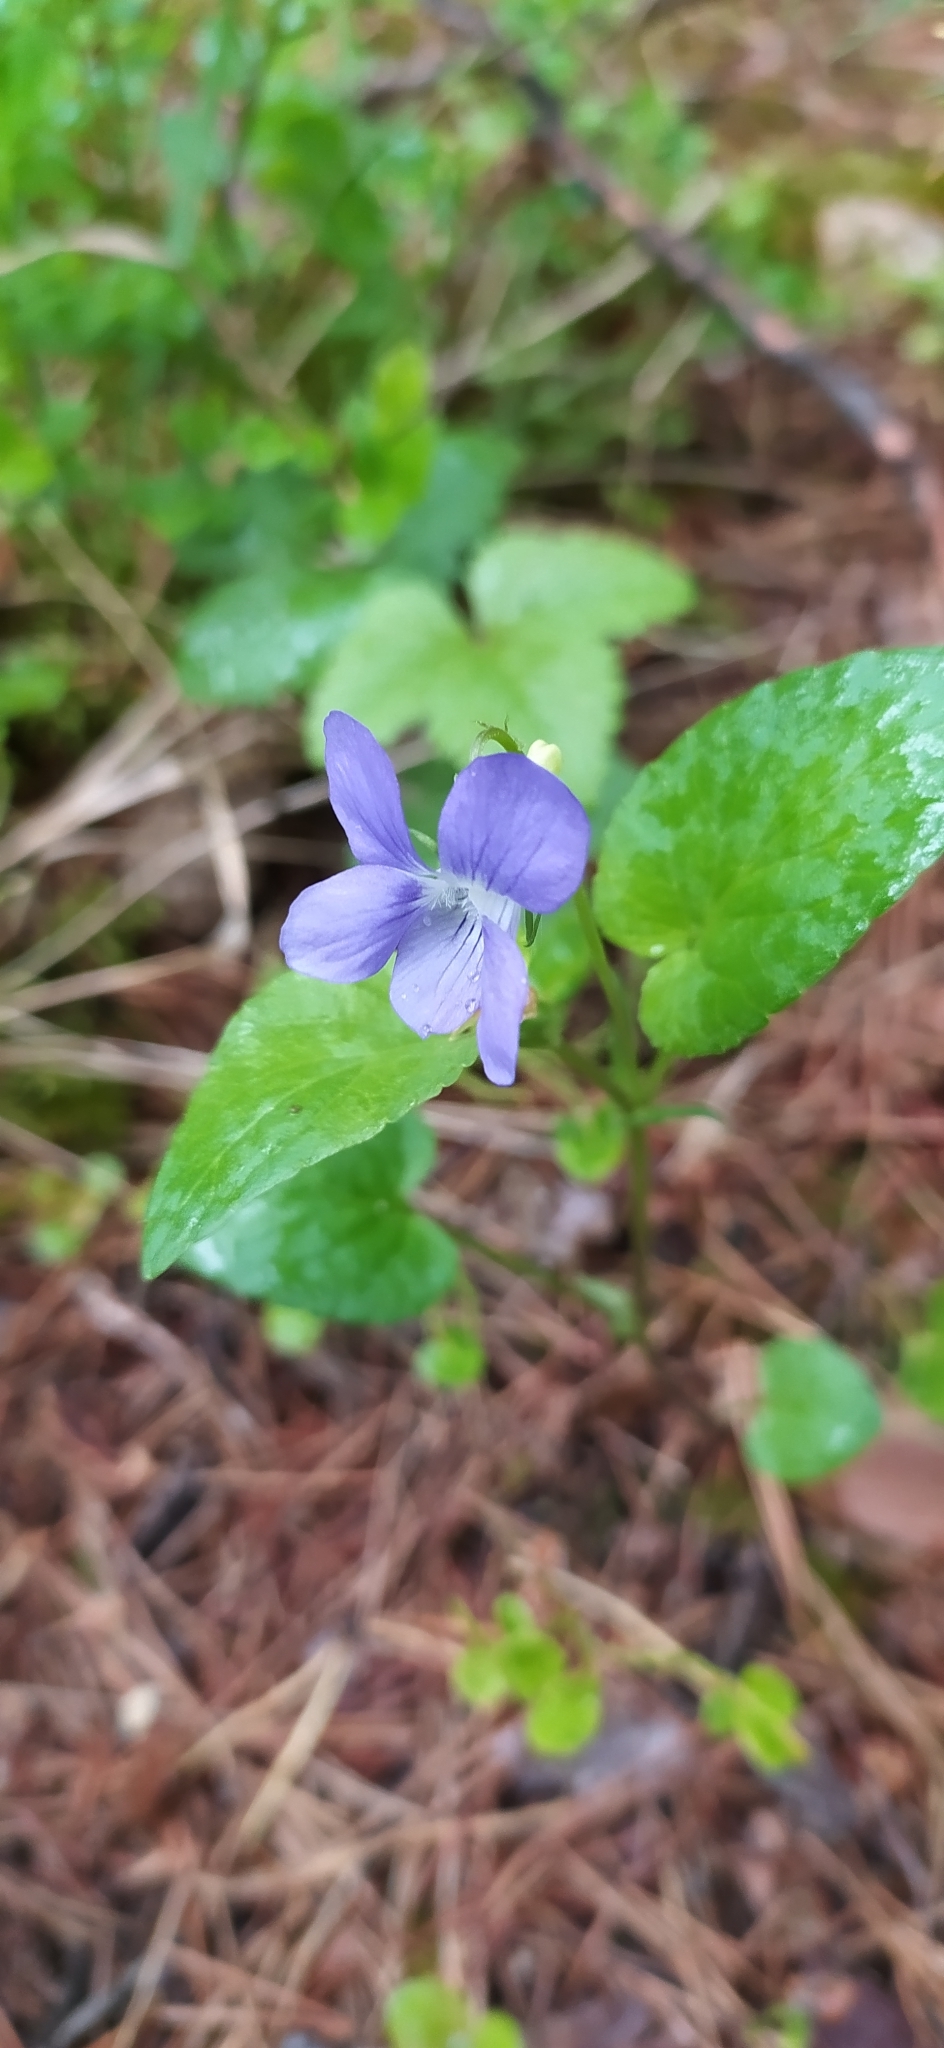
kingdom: Plantae
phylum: Tracheophyta
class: Magnoliopsida
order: Malpighiales
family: Violaceae
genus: Viola
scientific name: Viola canina
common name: Heath dog-violet
